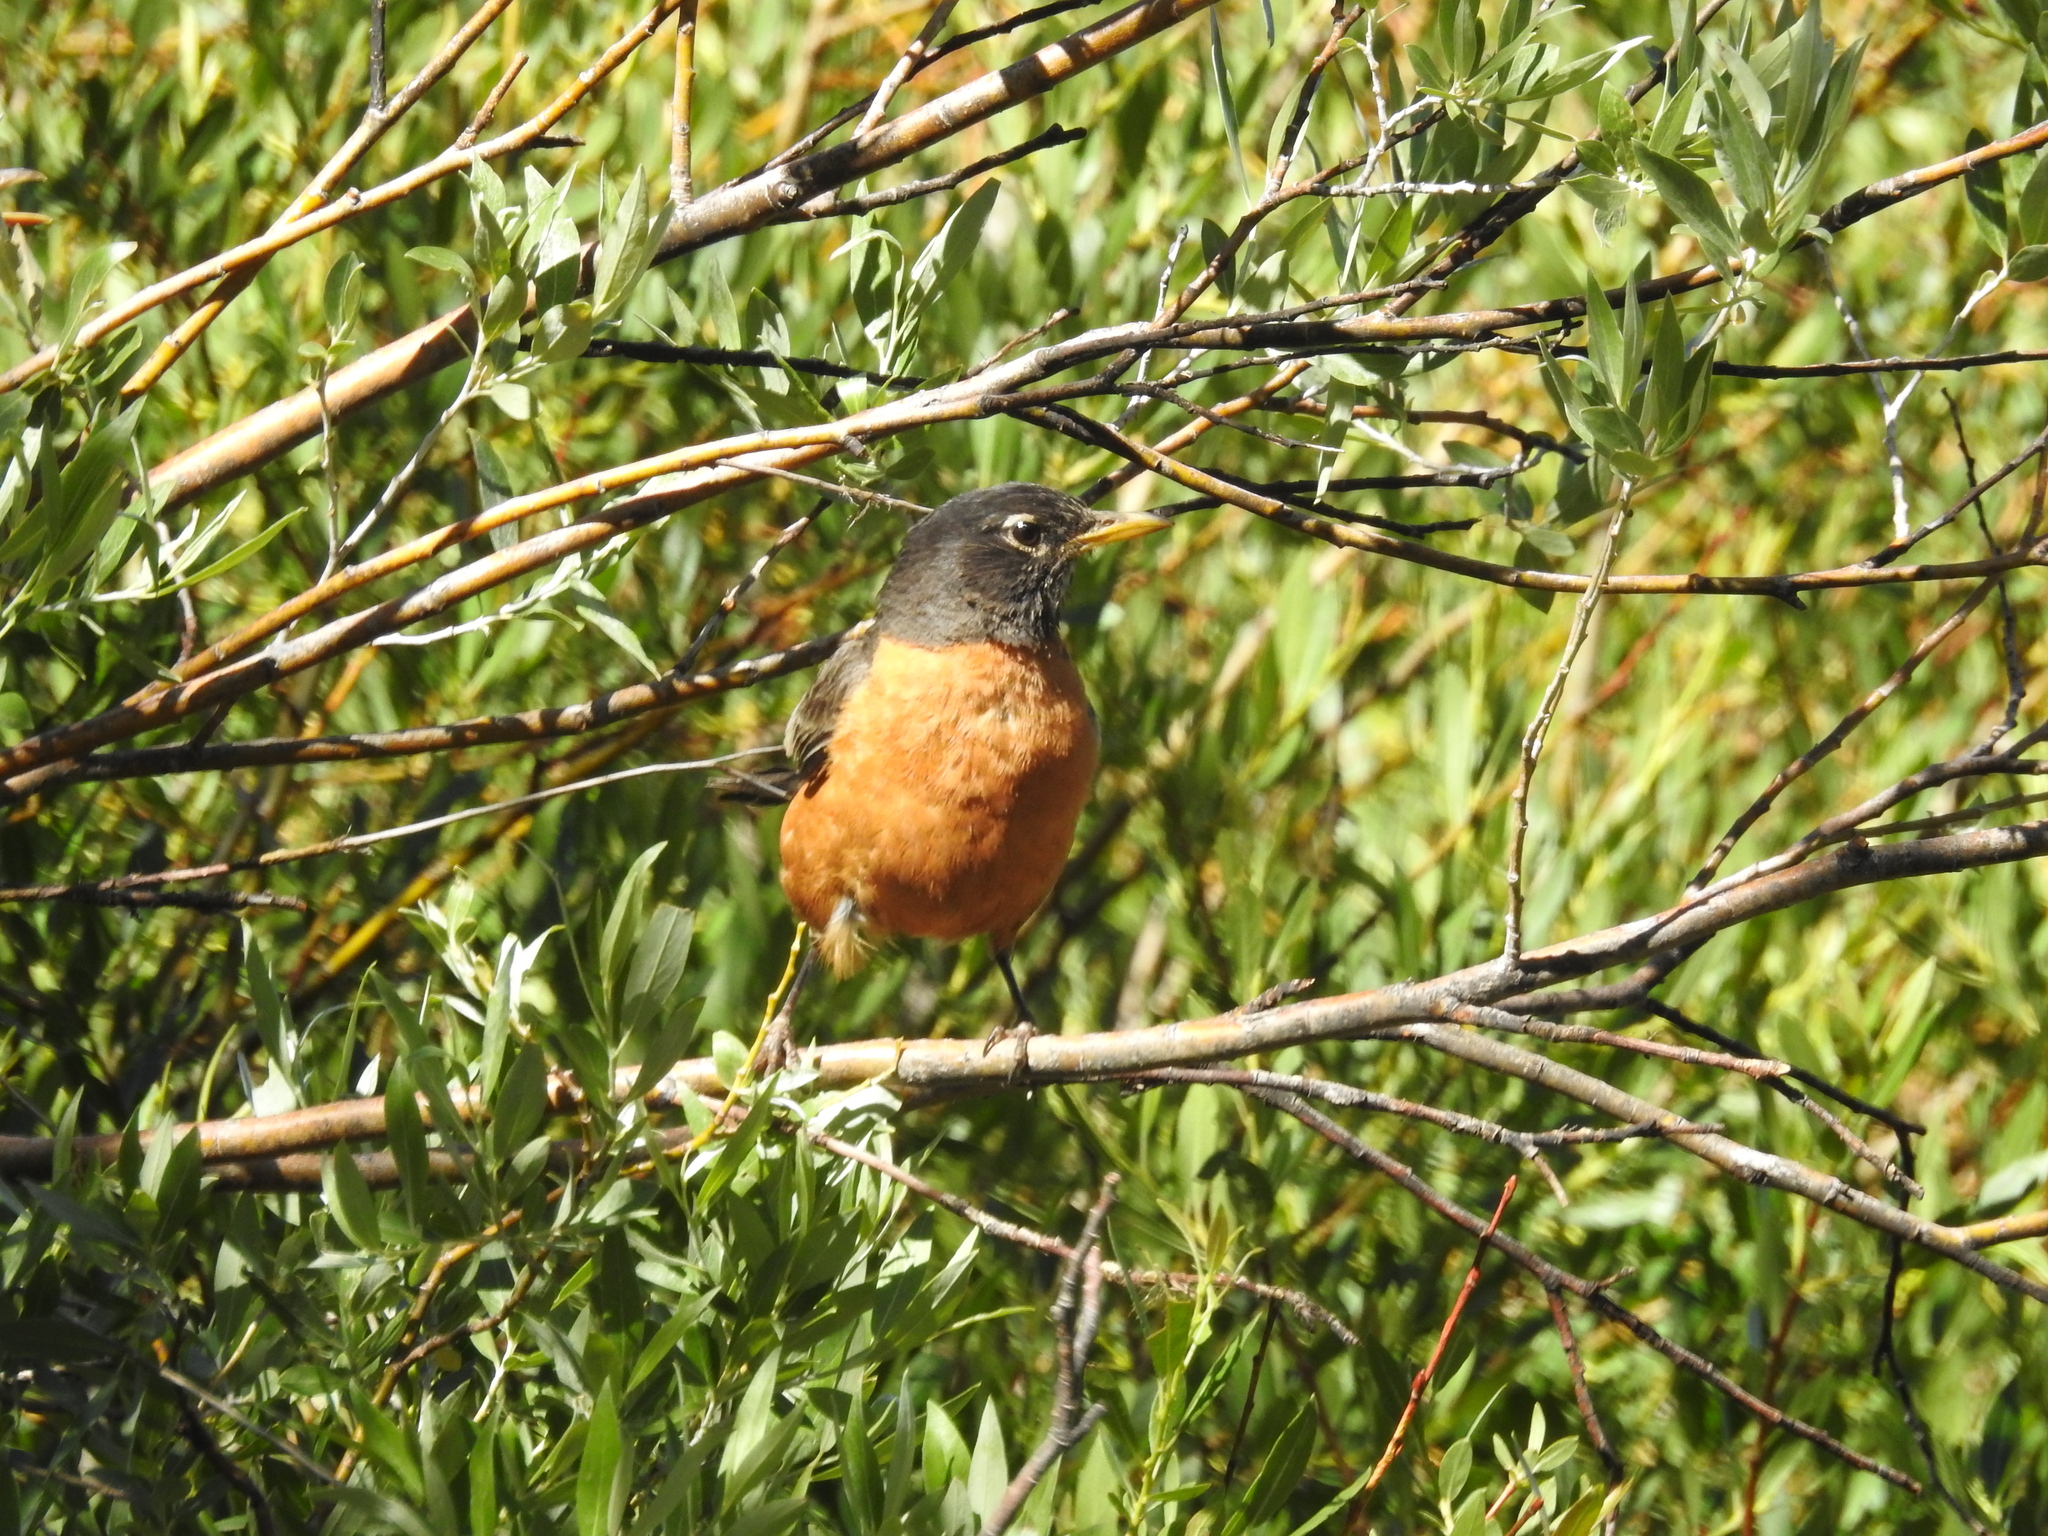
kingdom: Animalia
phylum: Chordata
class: Aves
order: Passeriformes
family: Turdidae
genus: Turdus
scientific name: Turdus migratorius
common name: American robin
